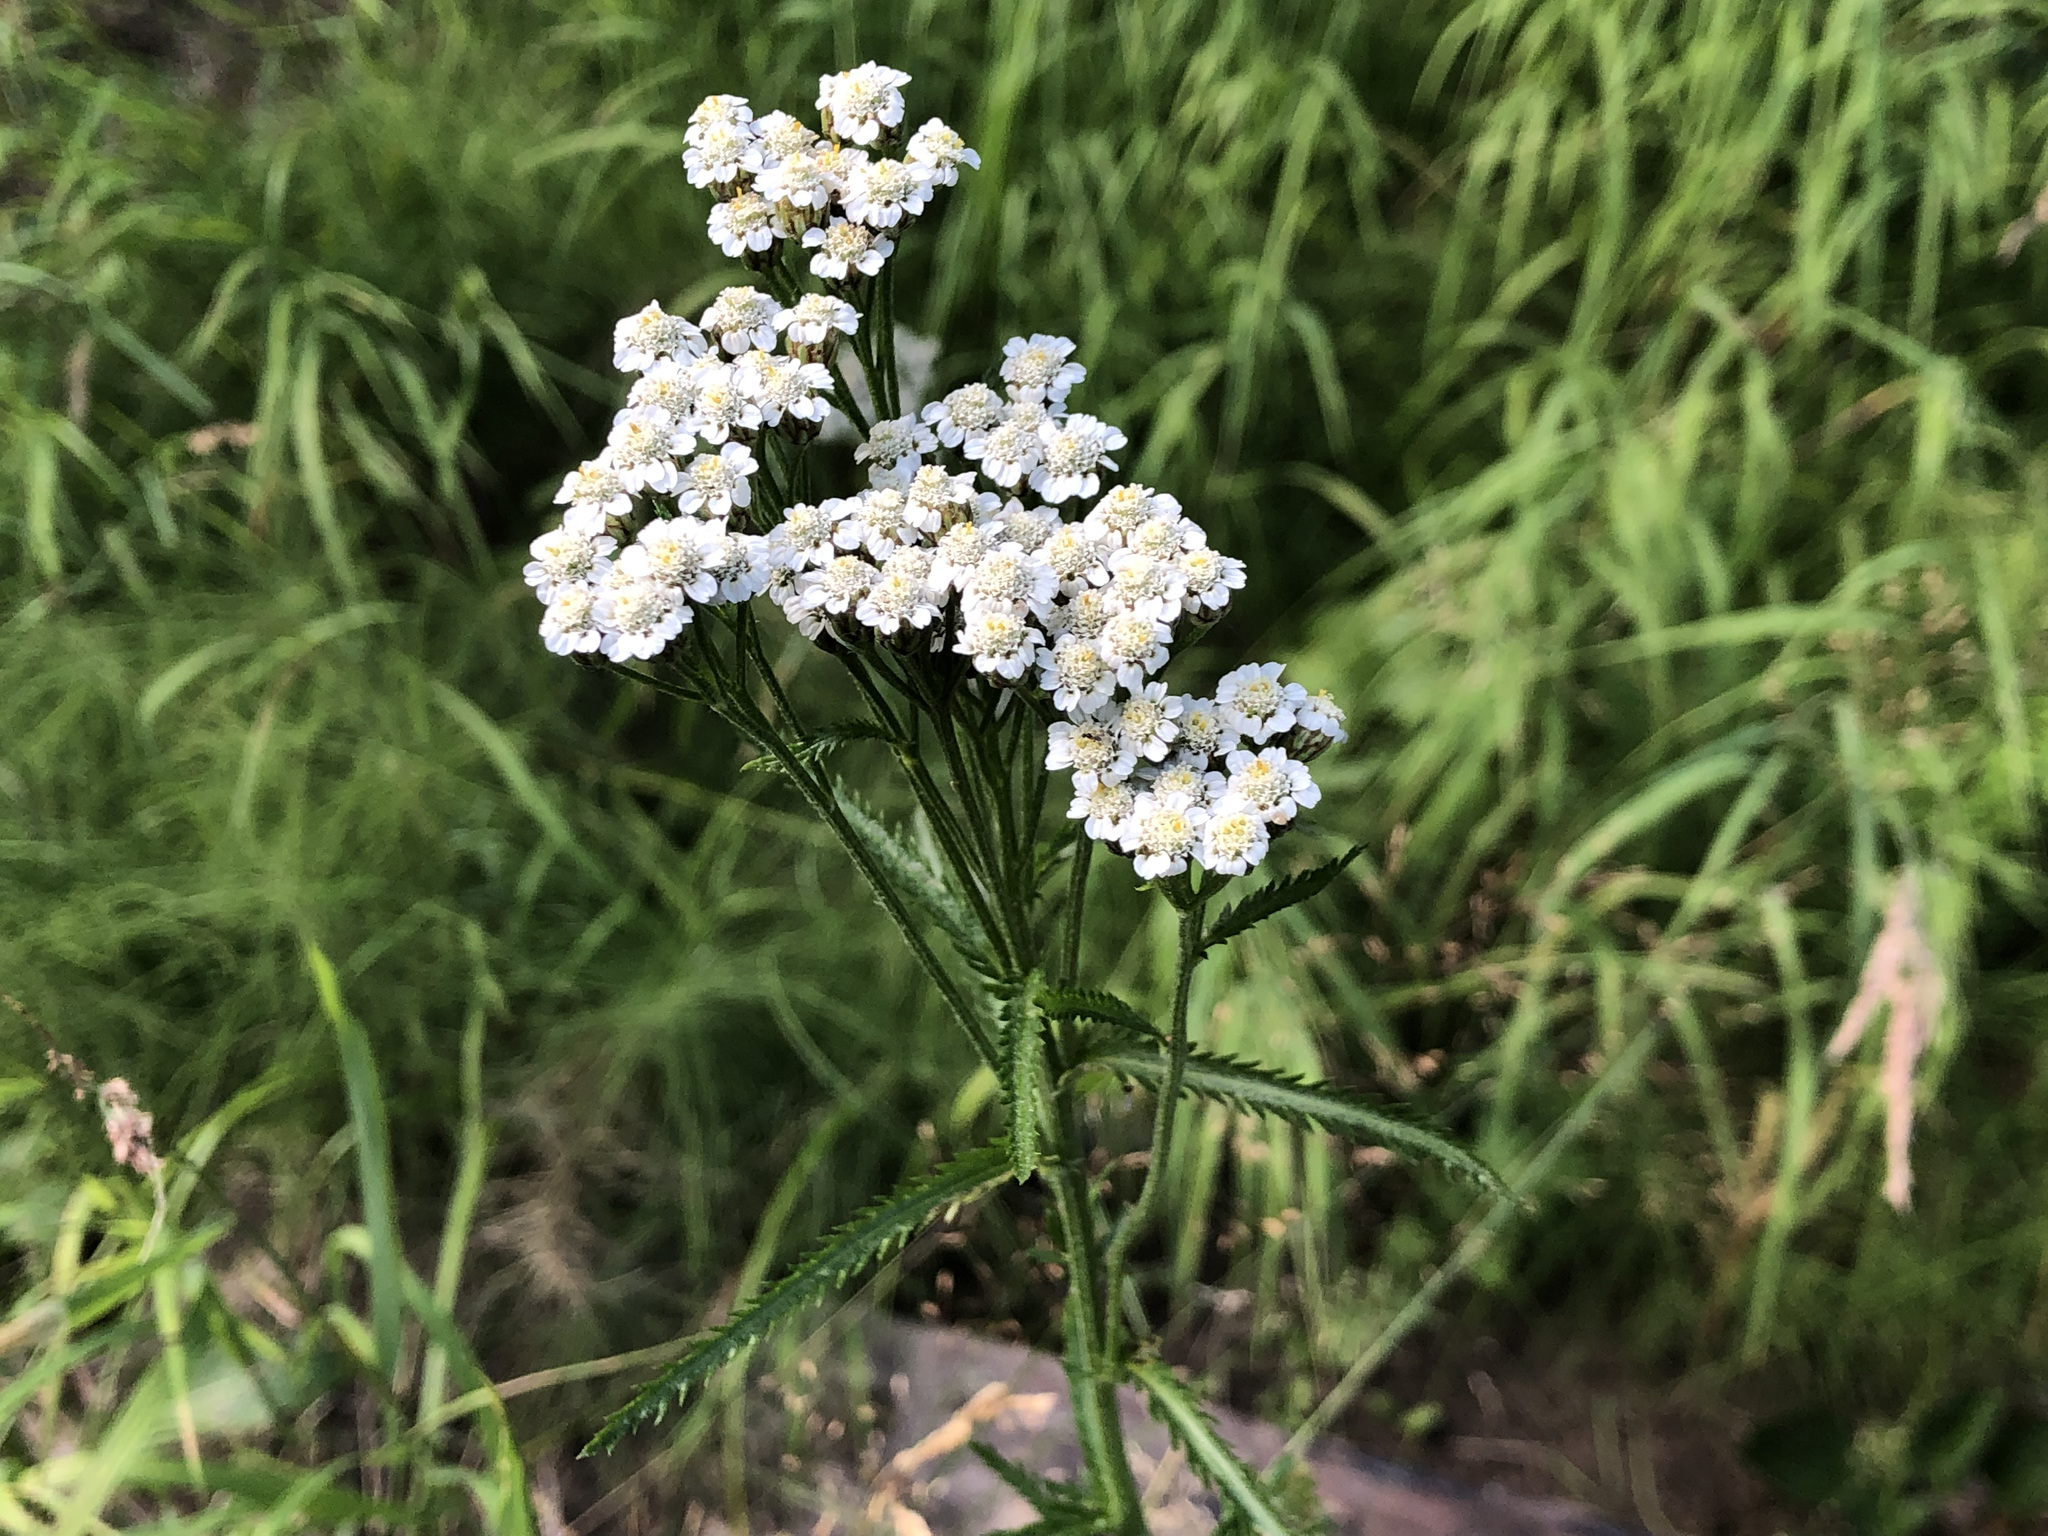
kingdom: Plantae
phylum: Tracheophyta
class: Magnoliopsida
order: Asterales
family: Asteraceae
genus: Achillea
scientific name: Achillea alpina
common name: Siberian yarrow
